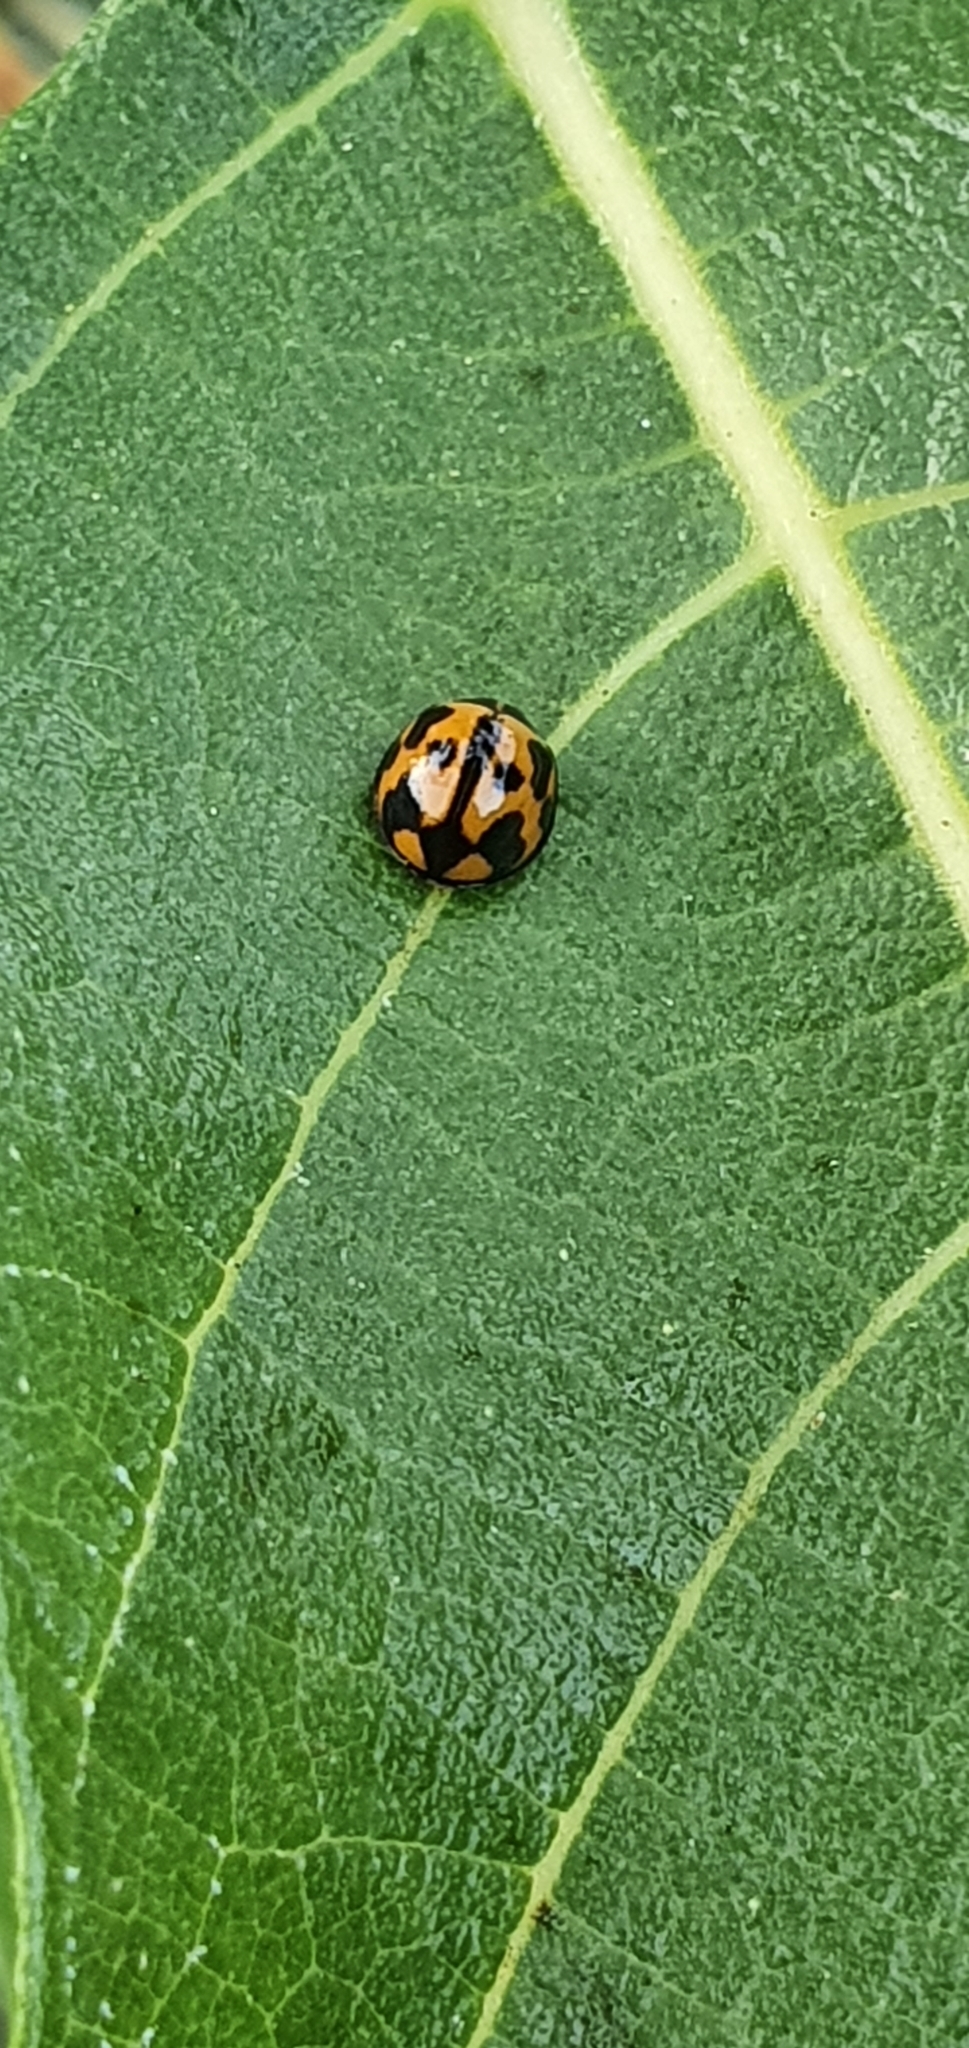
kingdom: Animalia
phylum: Arthropoda
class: Insecta
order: Coleoptera
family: Coccinellidae
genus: Coelophora
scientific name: Coelophora inaequalis
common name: Common australian lady beetle
